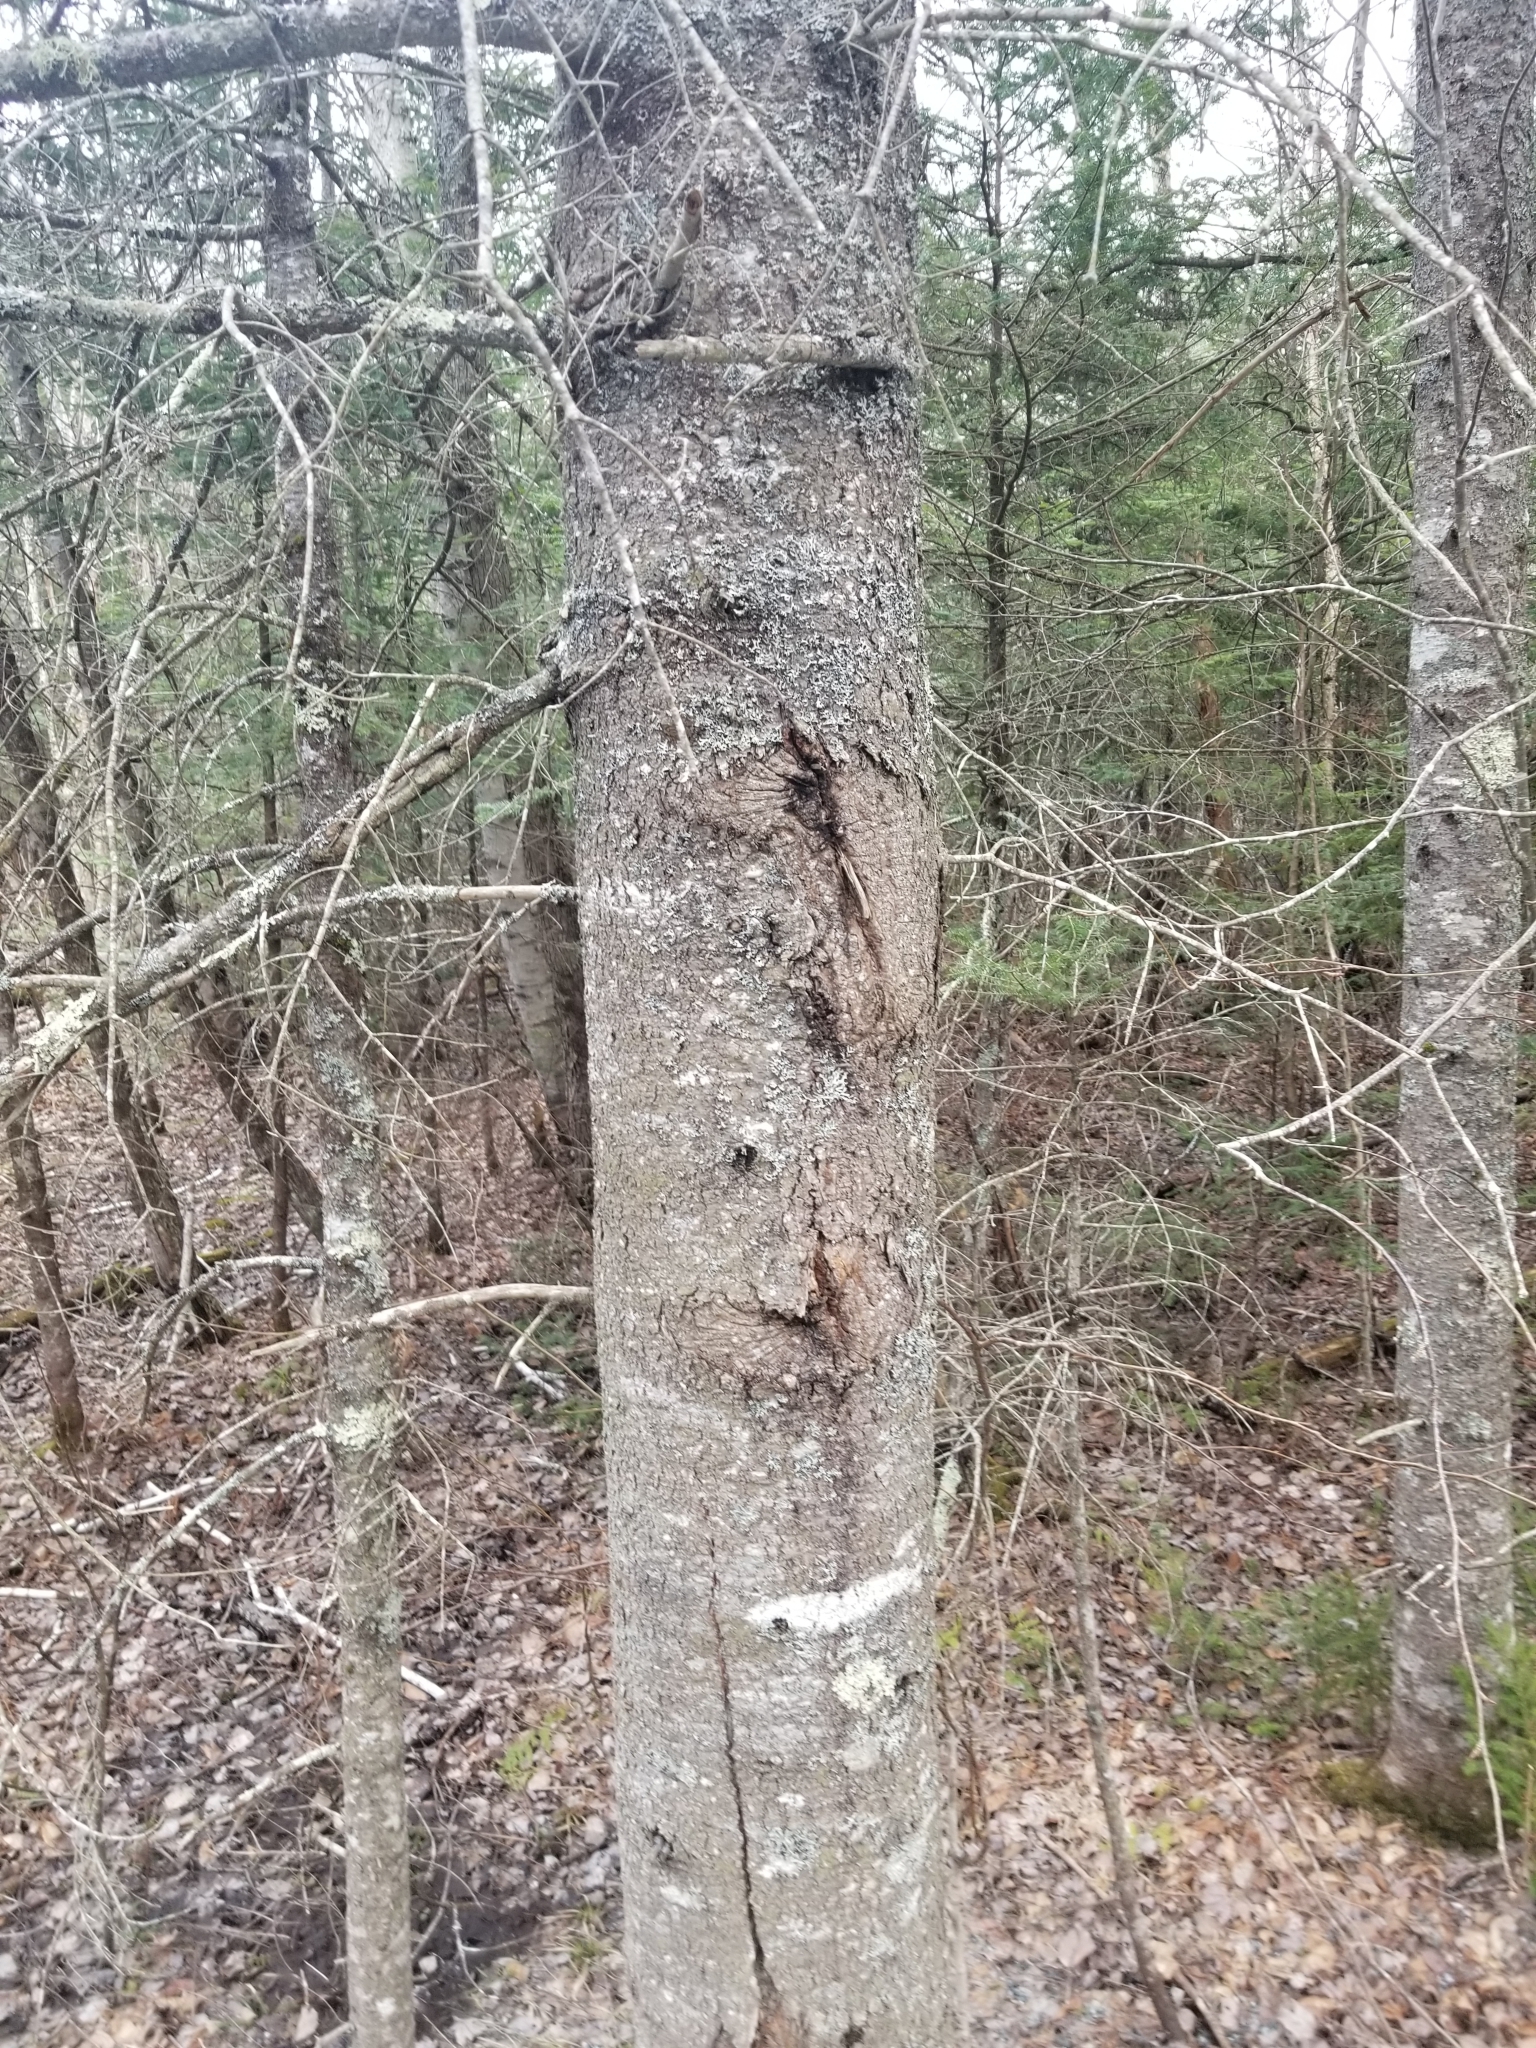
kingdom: Plantae
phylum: Tracheophyta
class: Pinopsida
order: Pinales
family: Pinaceae
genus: Abies
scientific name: Abies balsamea
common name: Balsam fir
